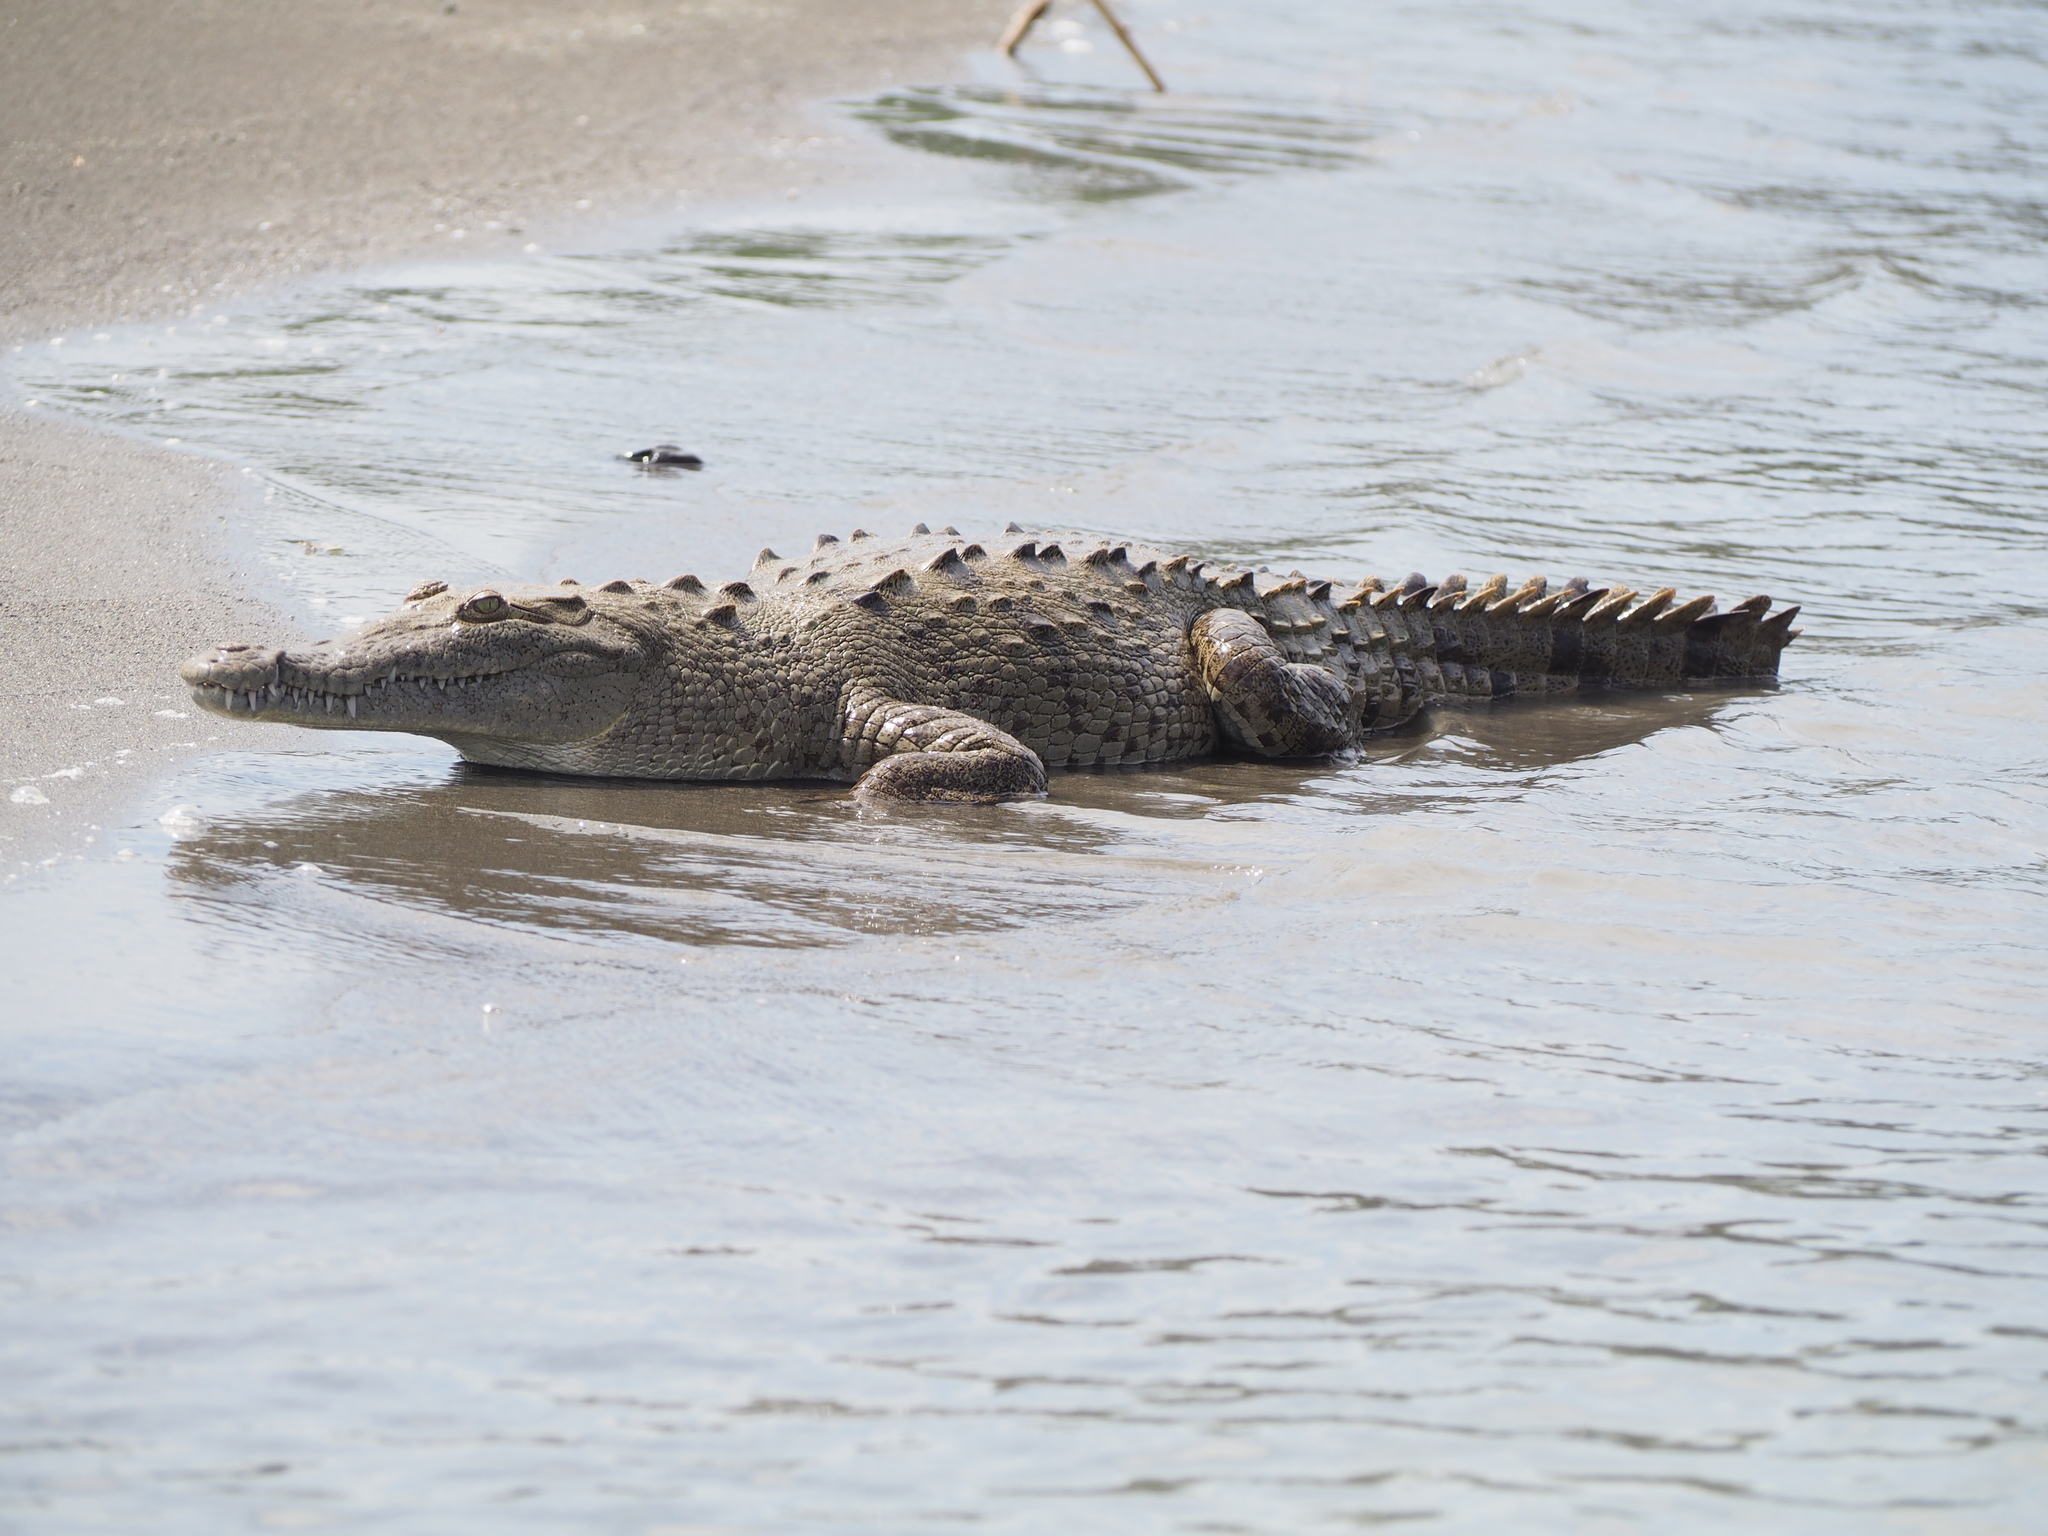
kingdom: Animalia
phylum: Chordata
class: Crocodylia
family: Crocodylidae
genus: Crocodylus
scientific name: Crocodylus acutus
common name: American crocodile
